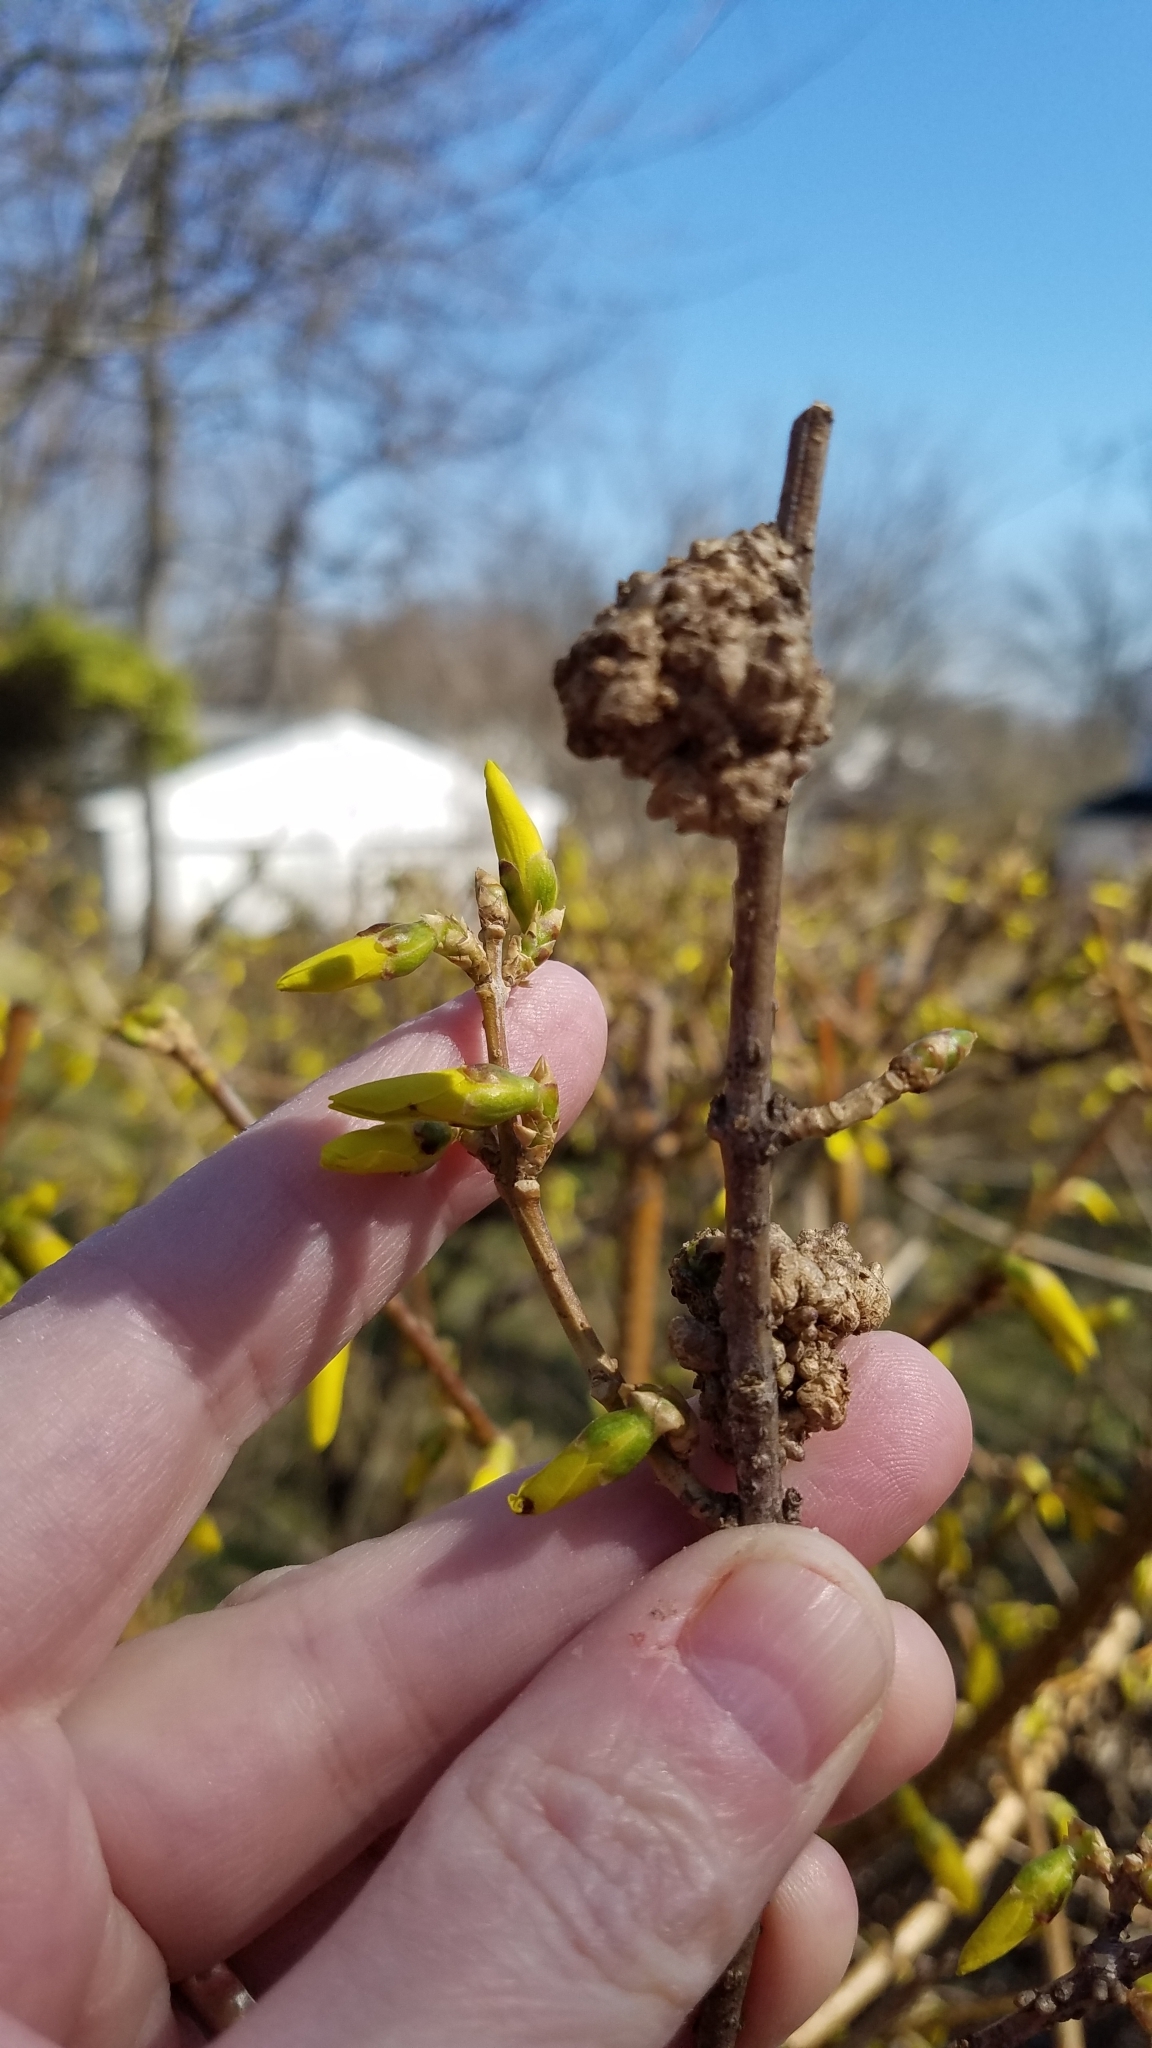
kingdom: Bacteria
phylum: Proteobacteria
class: Gammaproteobacteria
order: Pseudomonadales
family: Pseudomonadaceae
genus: Pseudomonas
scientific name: Pseudomonas
